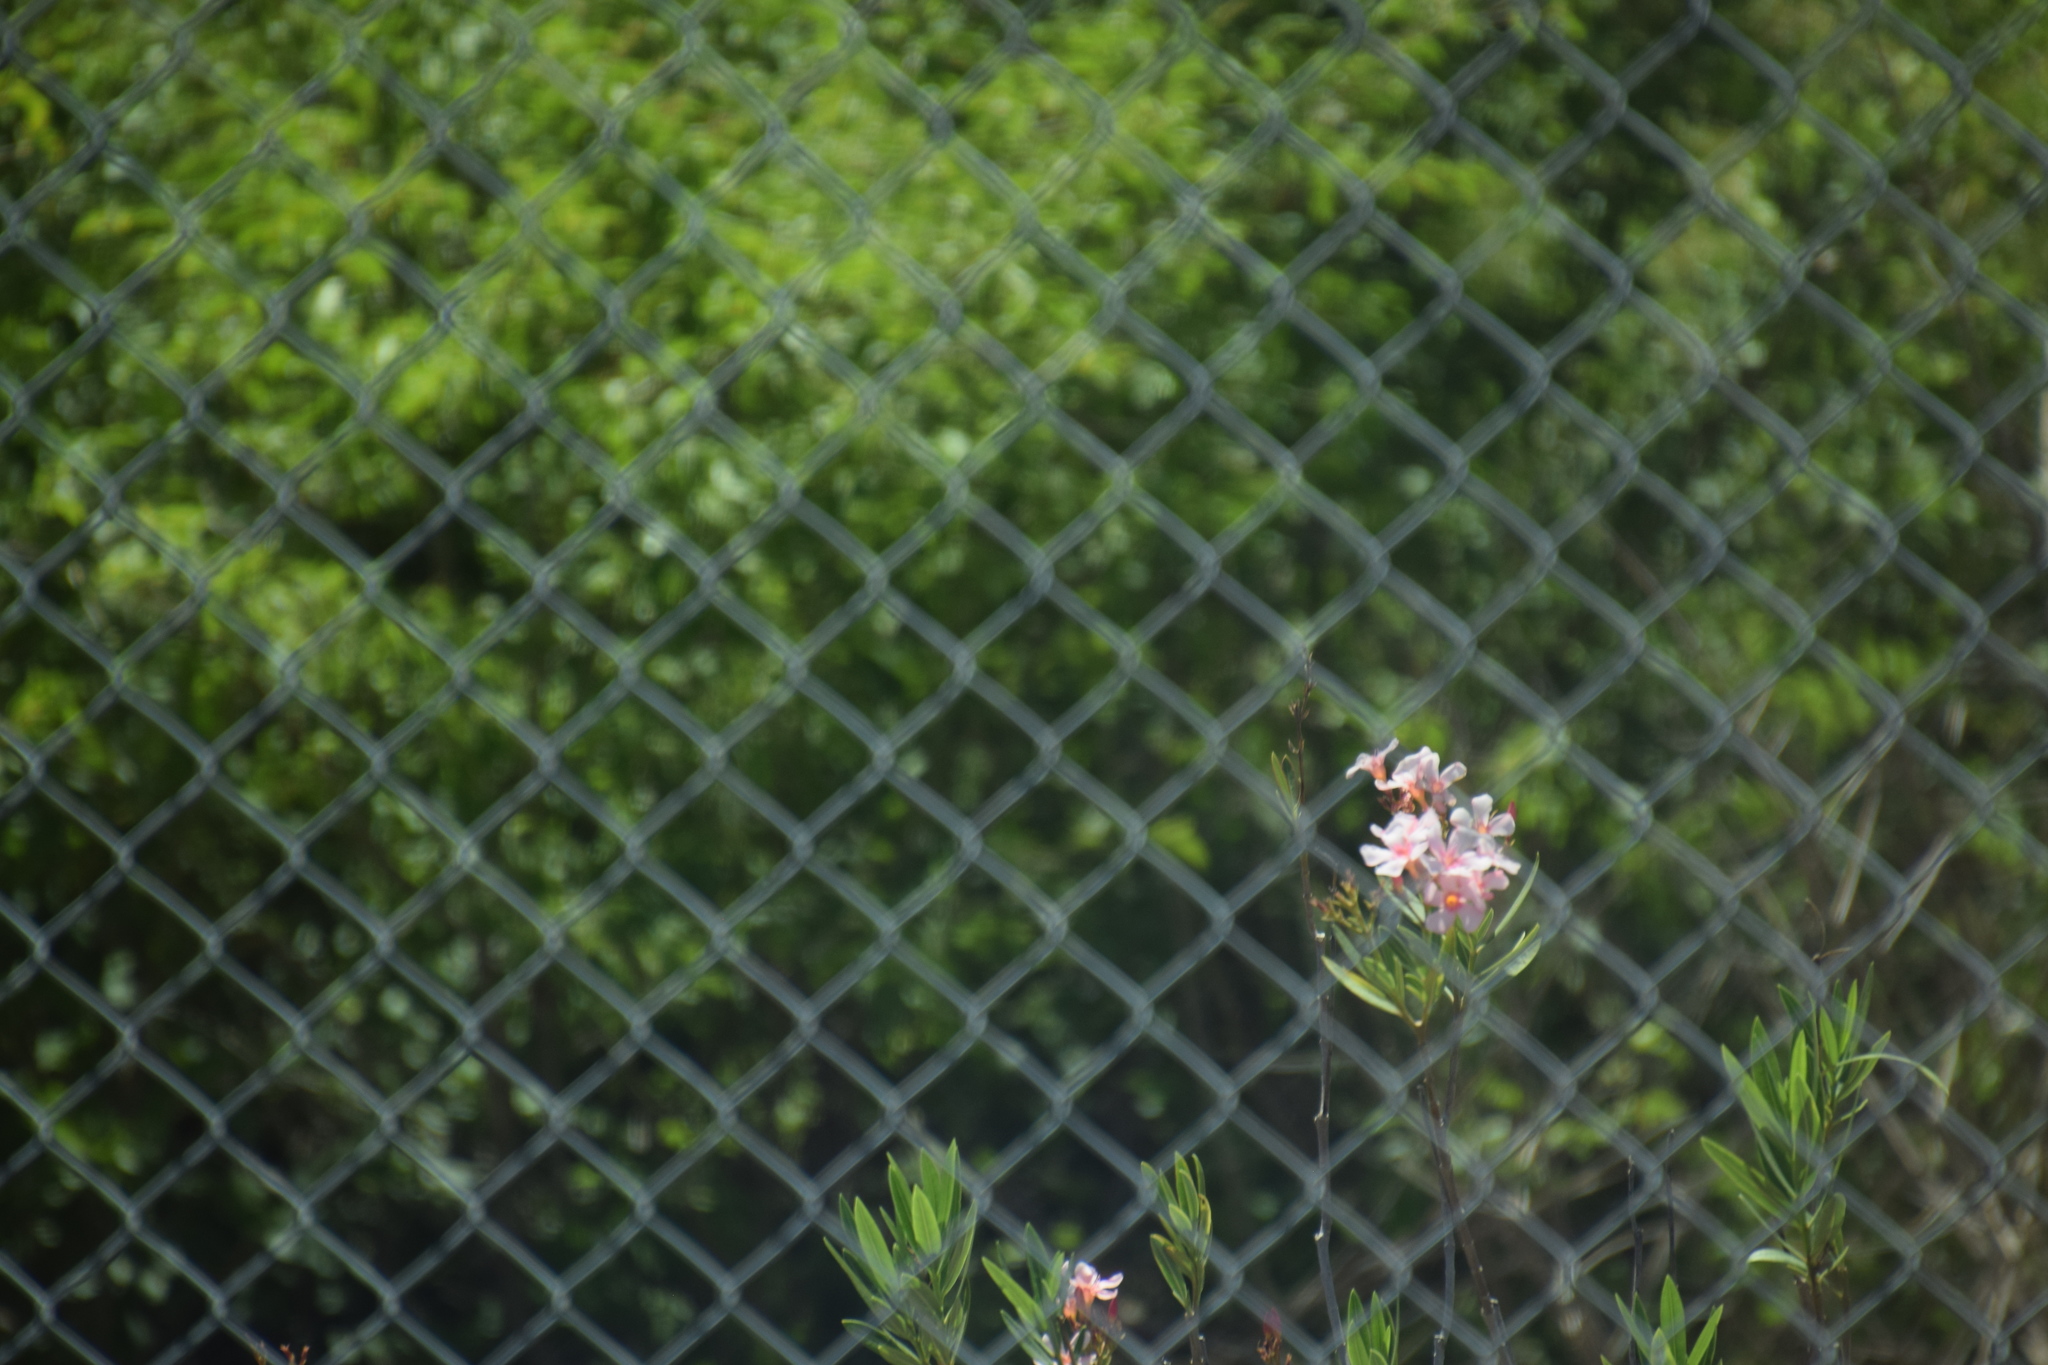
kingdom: Plantae
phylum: Tracheophyta
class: Magnoliopsida
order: Gentianales
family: Apocynaceae
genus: Nerium
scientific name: Nerium oleander
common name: Oleander
